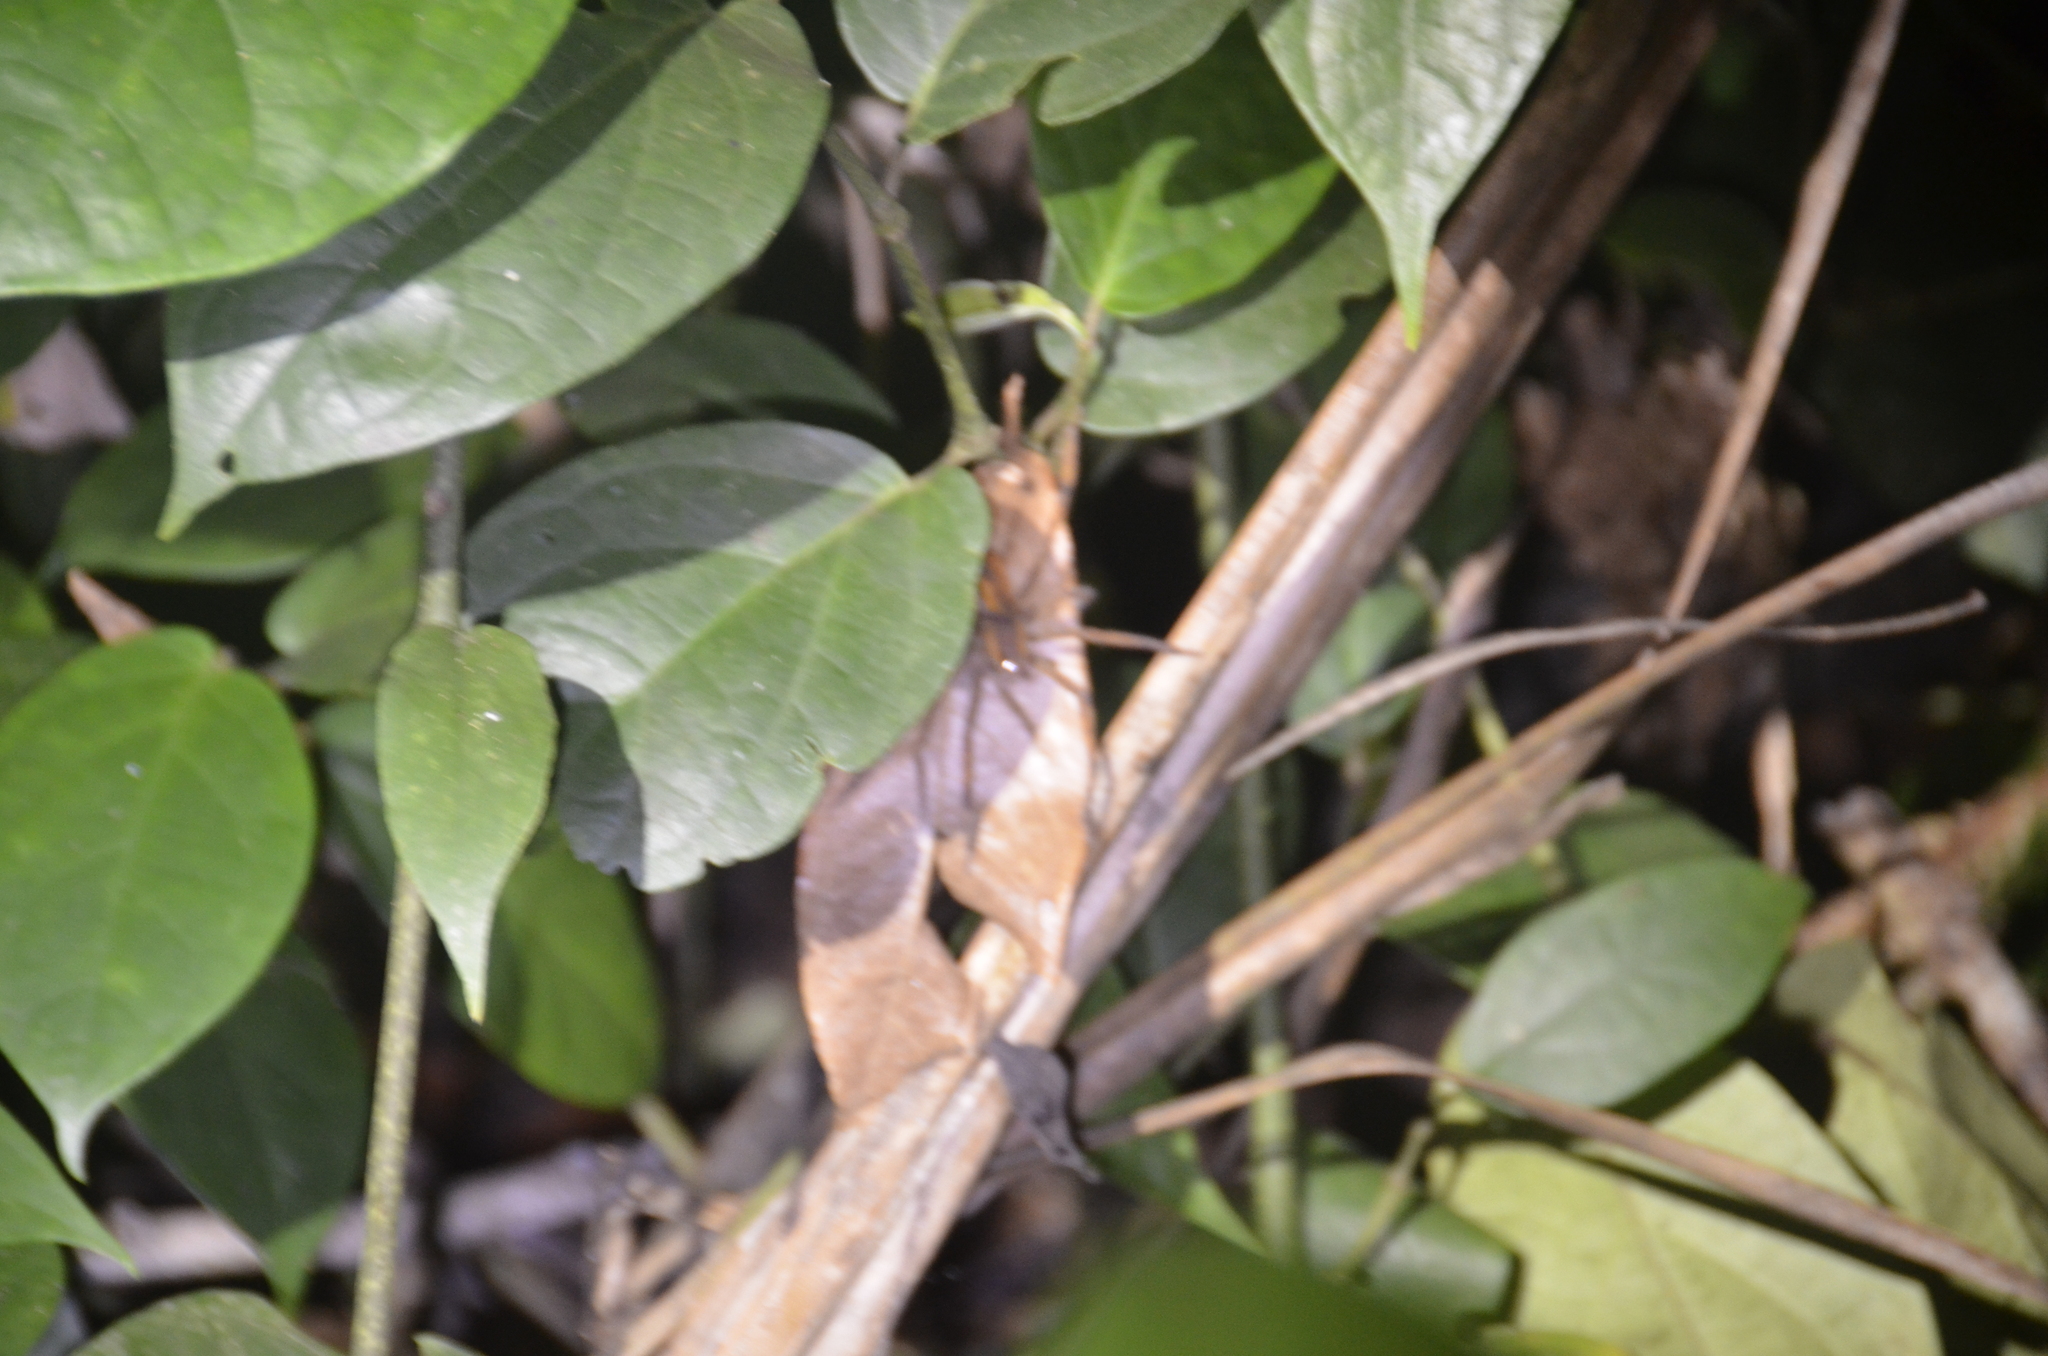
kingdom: Animalia
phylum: Arthropoda
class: Arachnida
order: Araneae
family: Trechaleidae
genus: Cupiennius
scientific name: Cupiennius getazi
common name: Wandering spiders
